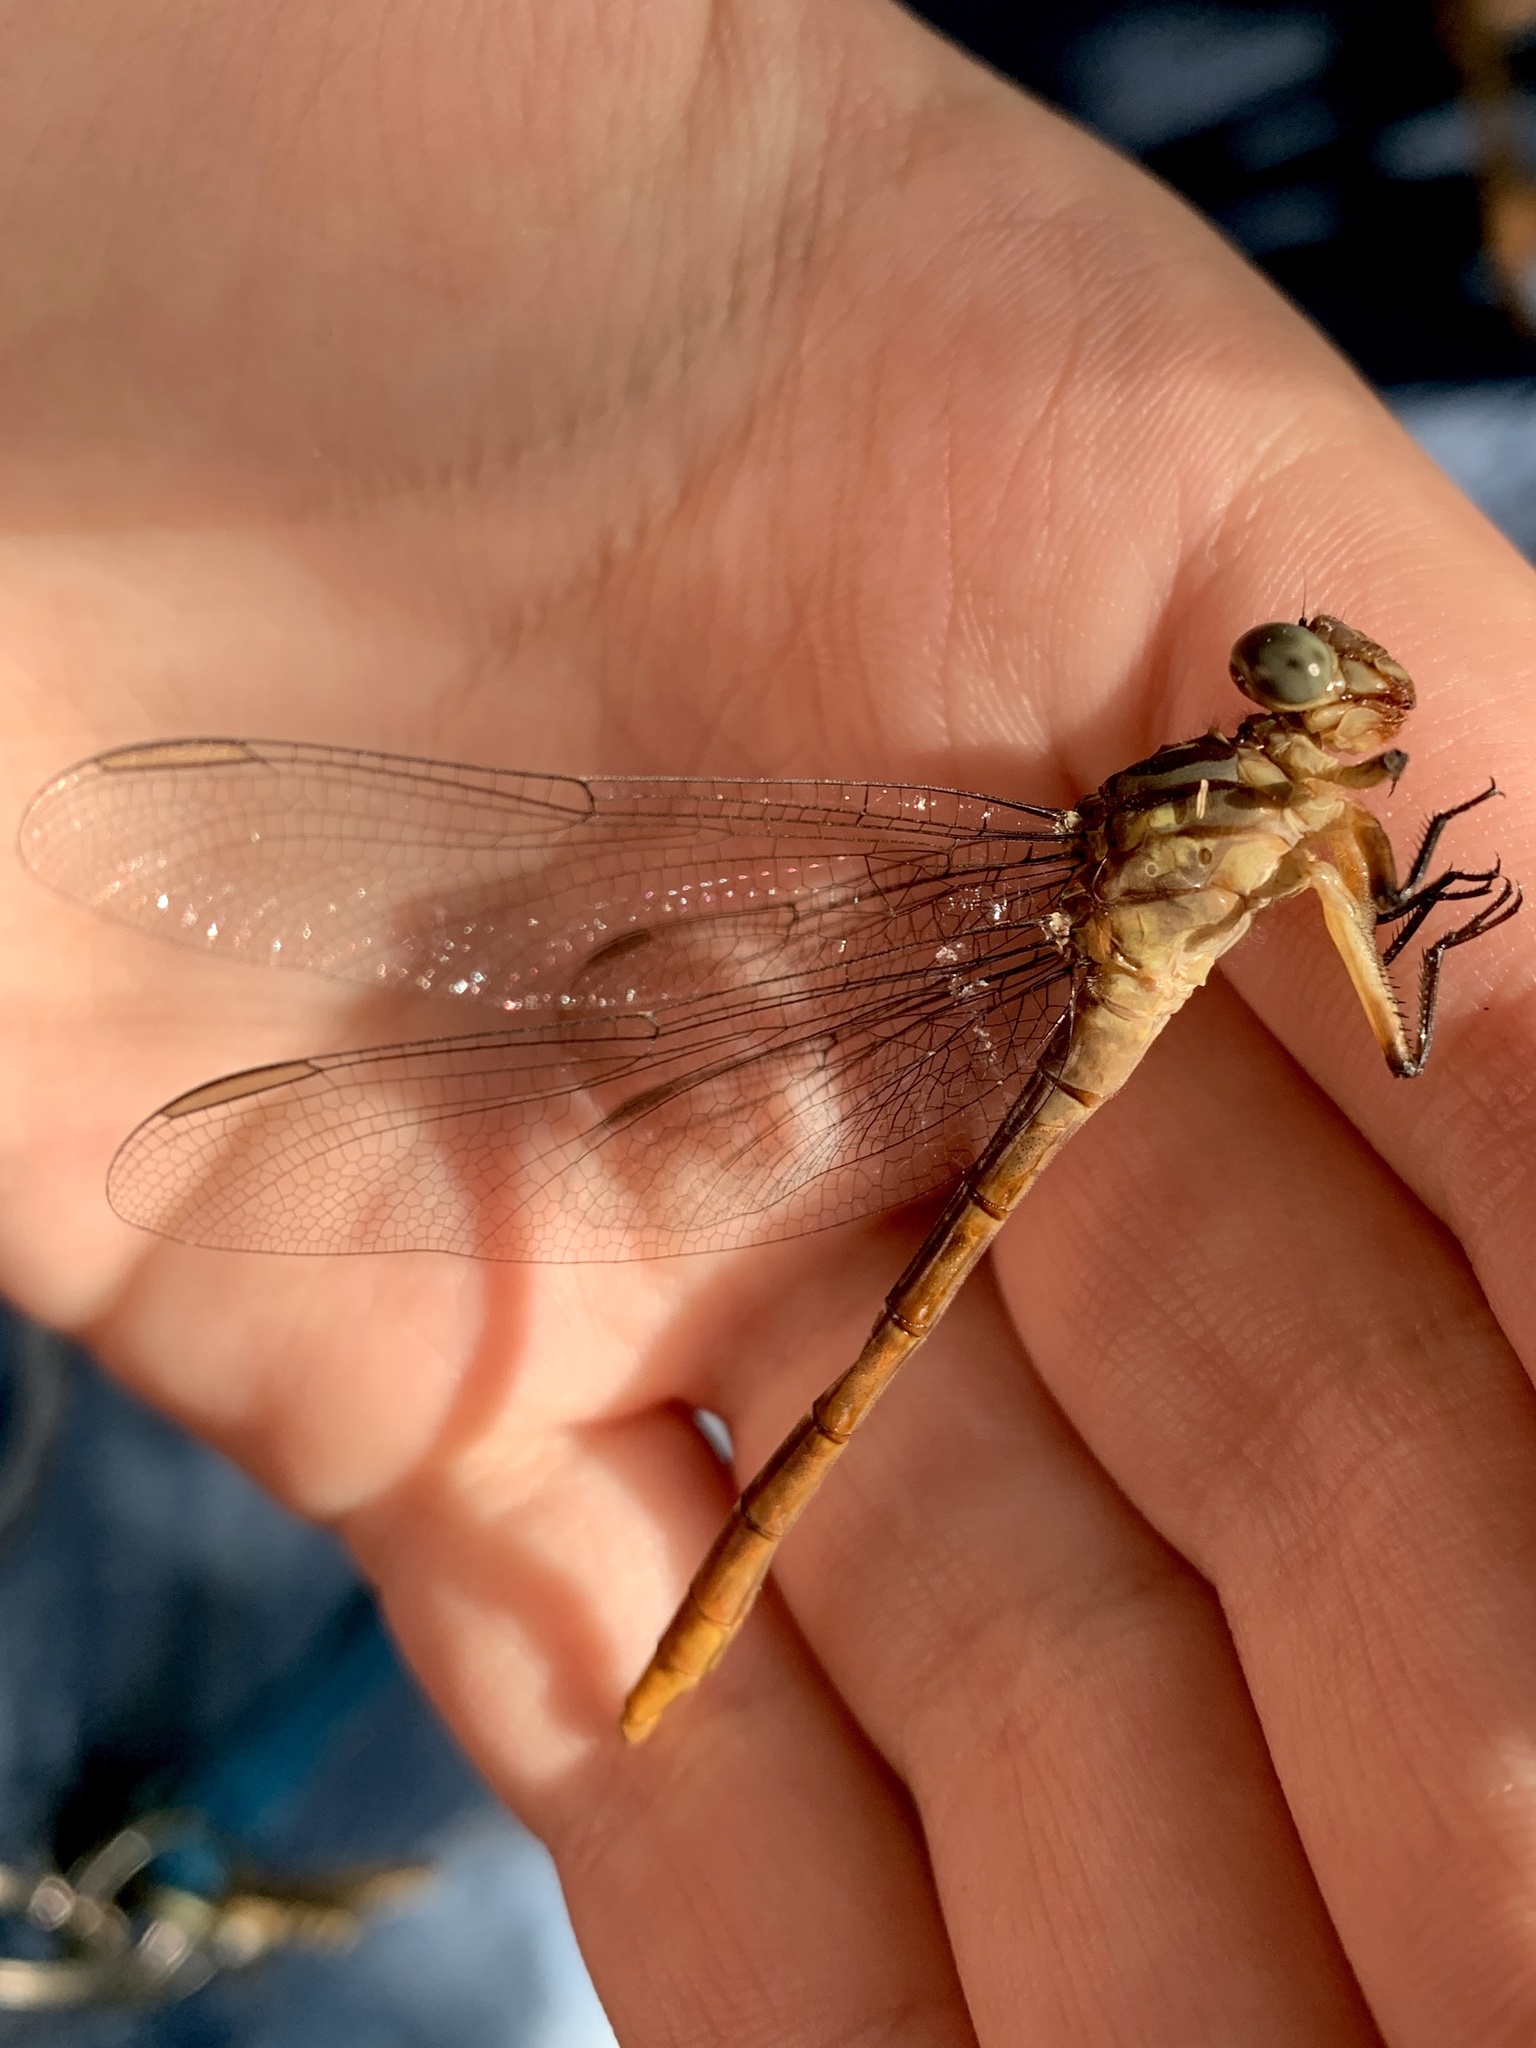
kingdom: Animalia
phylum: Arthropoda
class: Insecta
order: Odonata
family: Gomphidae
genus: Stylurus
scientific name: Stylurus plagiatus
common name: Russet-tipped clubtail
